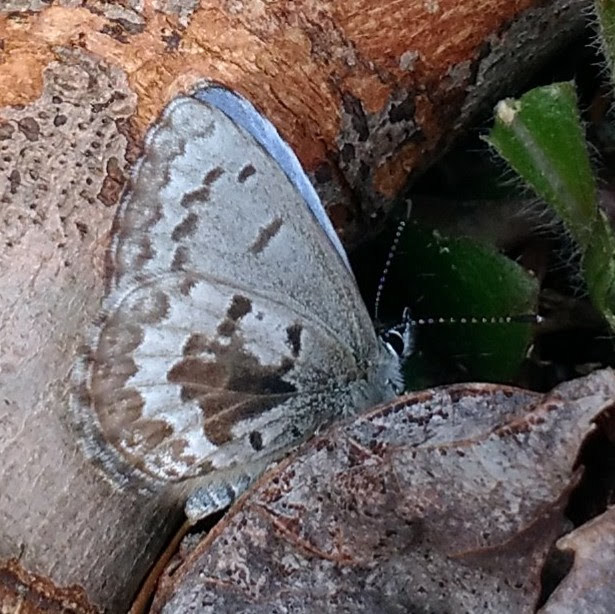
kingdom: Animalia
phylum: Arthropoda
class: Insecta
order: Lepidoptera
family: Lycaenidae
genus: Celastrina
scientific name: Celastrina lucia
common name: Lucia azure
